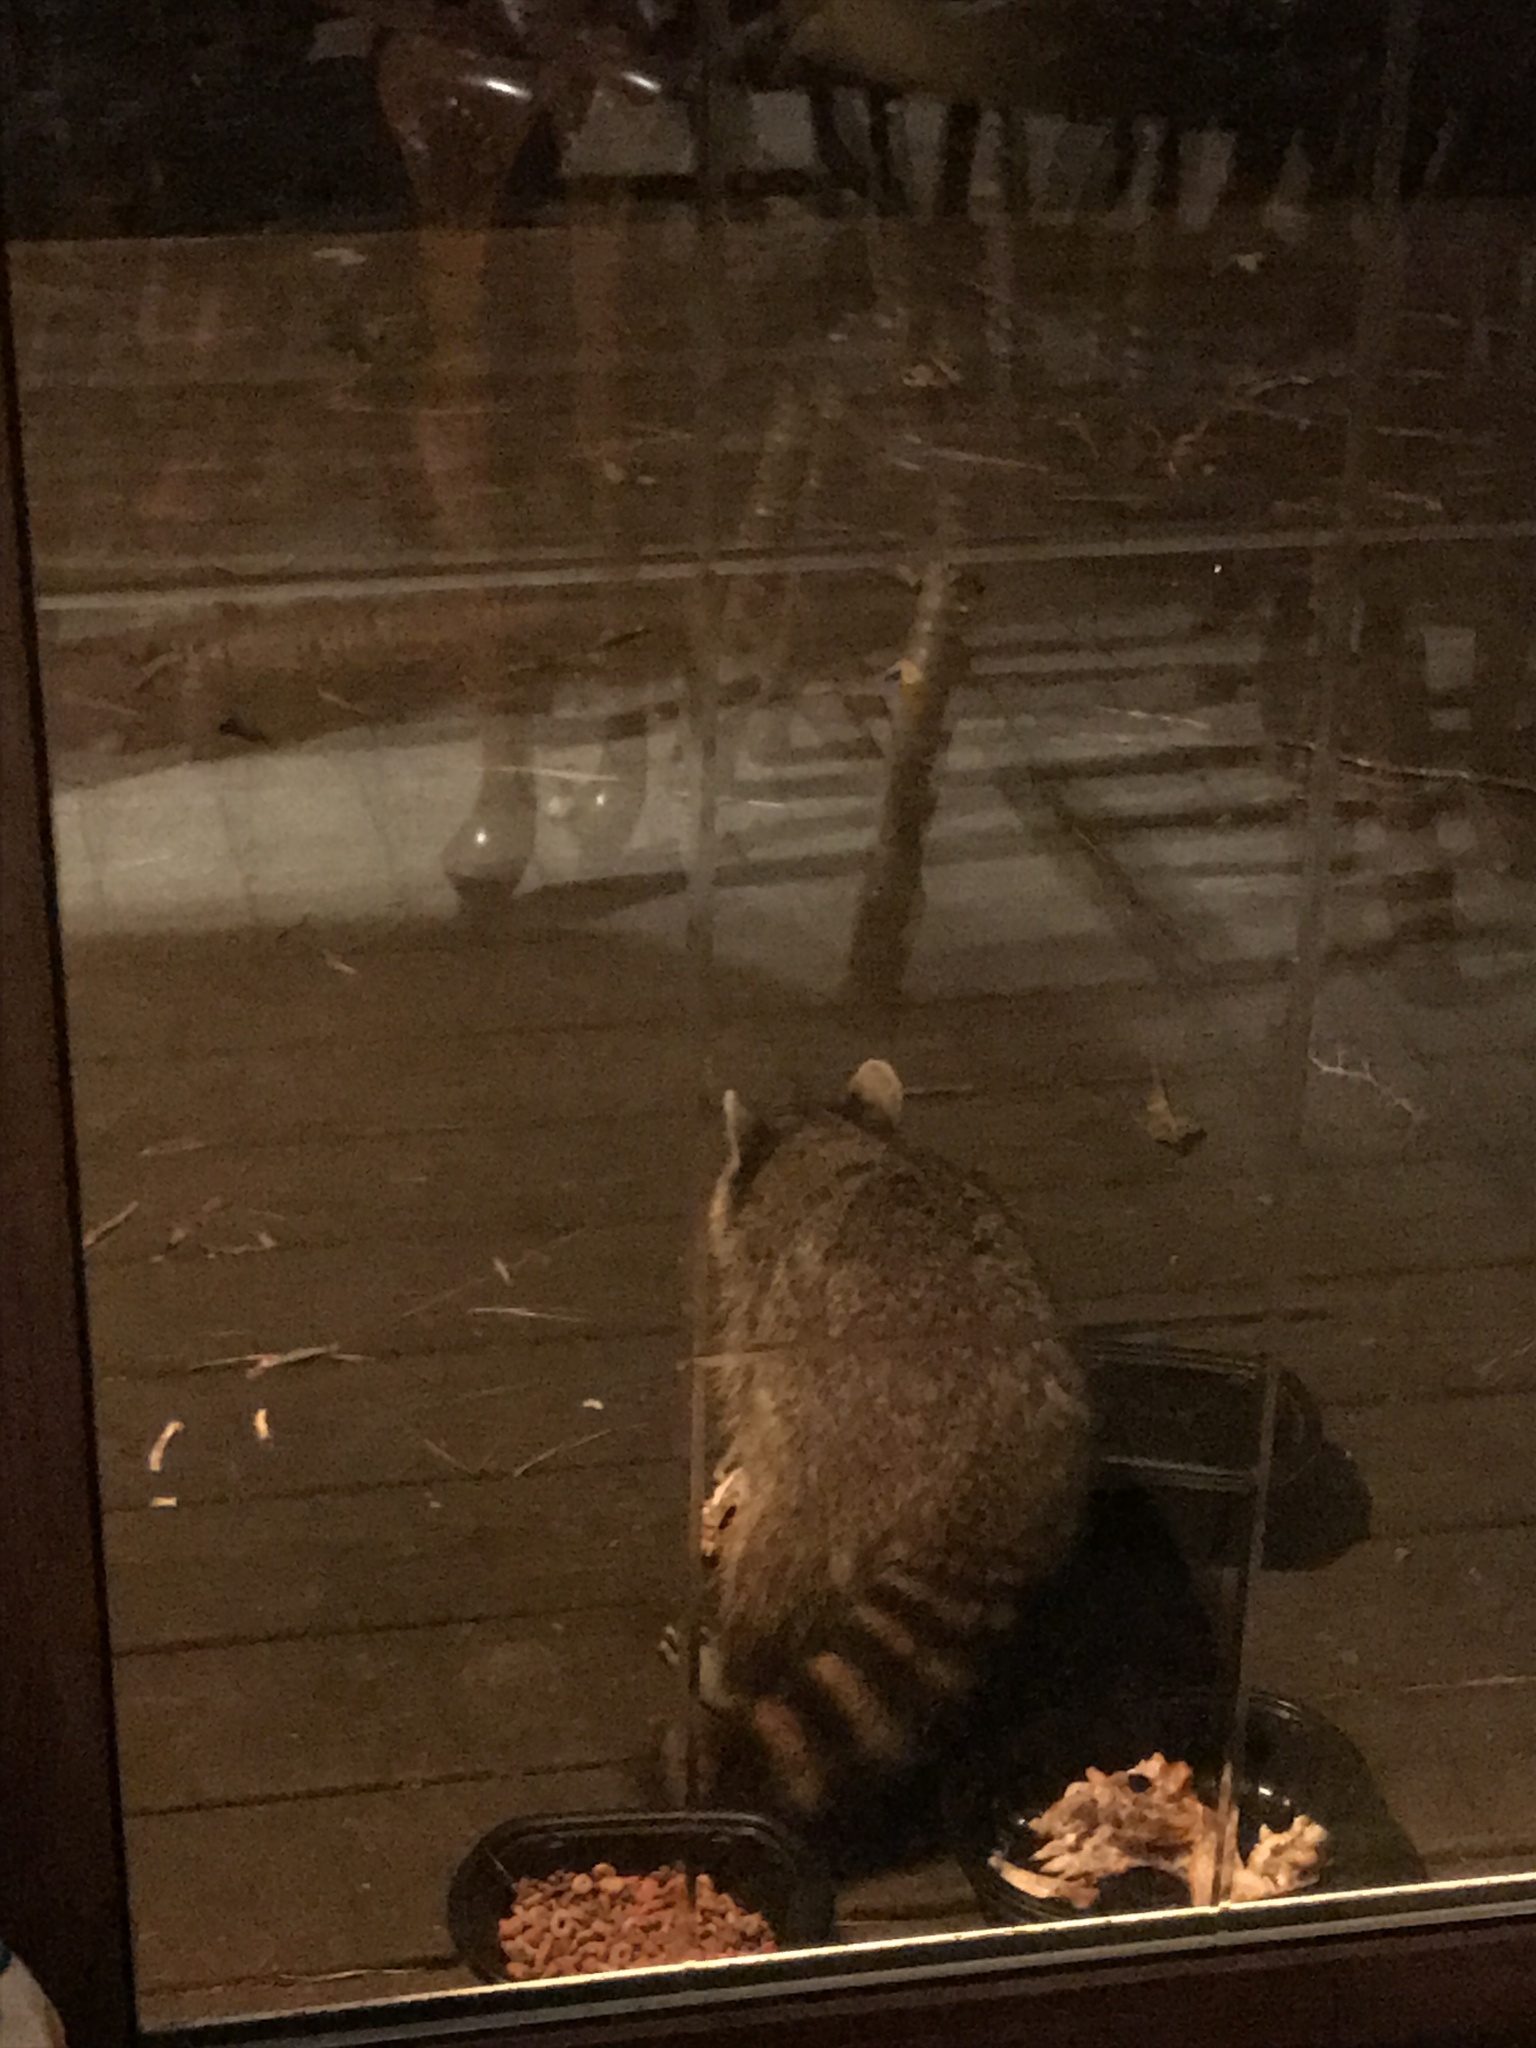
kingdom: Animalia
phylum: Chordata
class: Mammalia
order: Carnivora
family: Procyonidae
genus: Procyon
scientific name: Procyon lotor
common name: Raccoon
